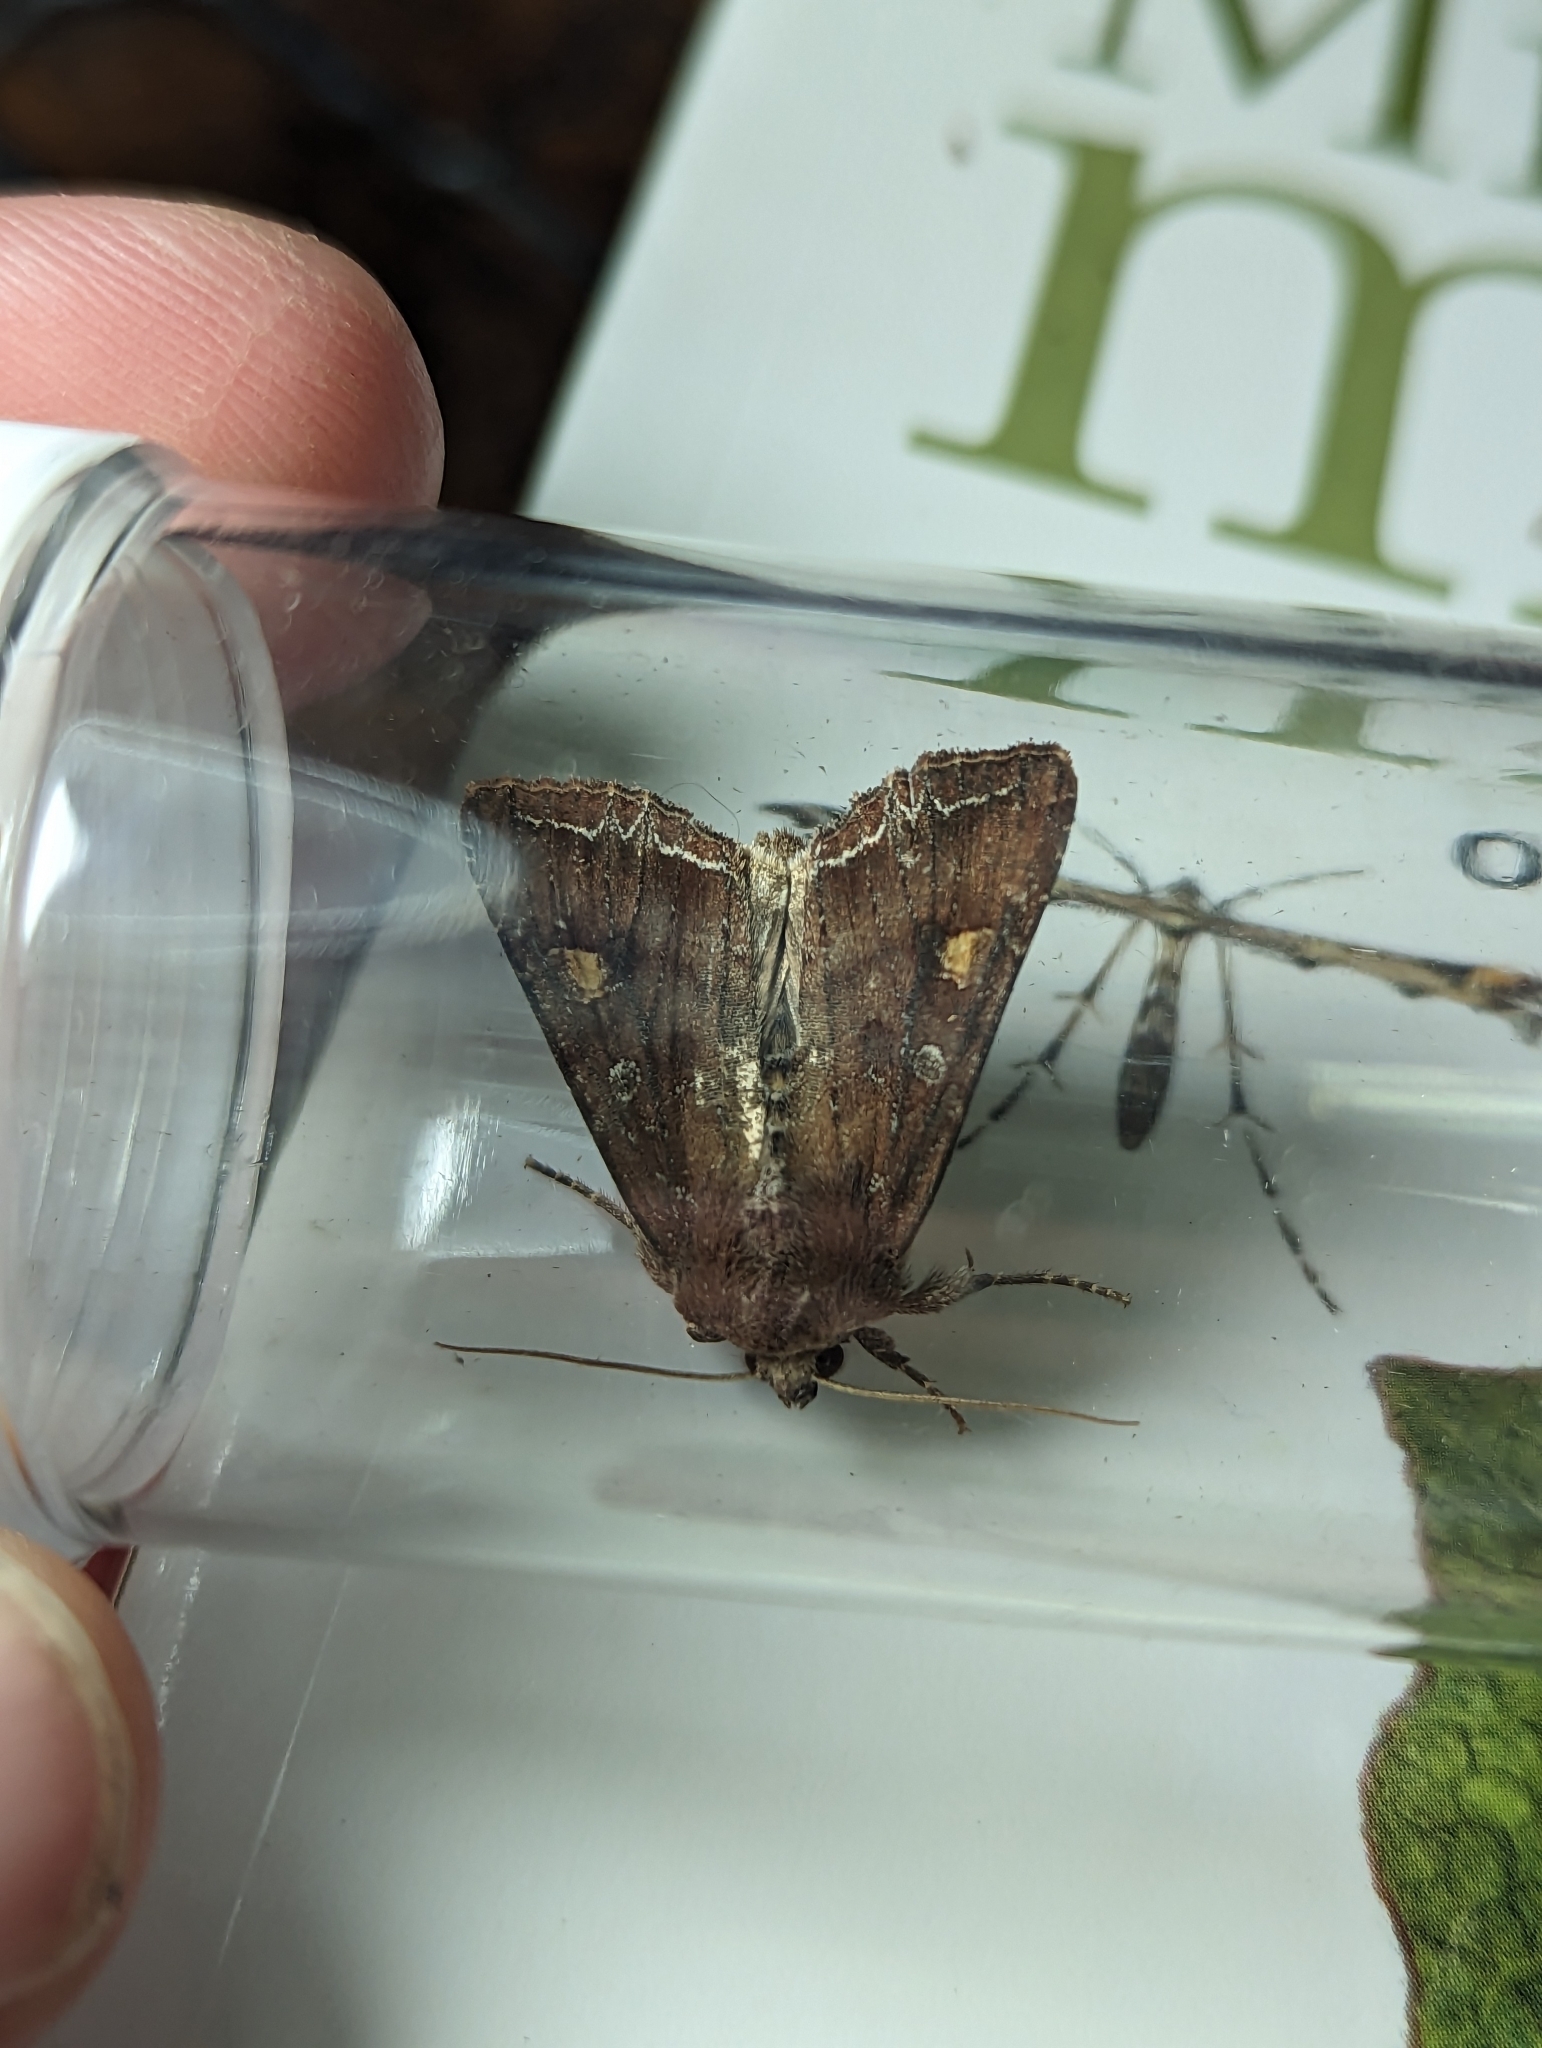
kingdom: Animalia
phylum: Arthropoda
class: Insecta
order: Lepidoptera
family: Noctuidae
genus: Lacanobia
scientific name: Lacanobia oleracea
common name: Bright-line brown-eye
